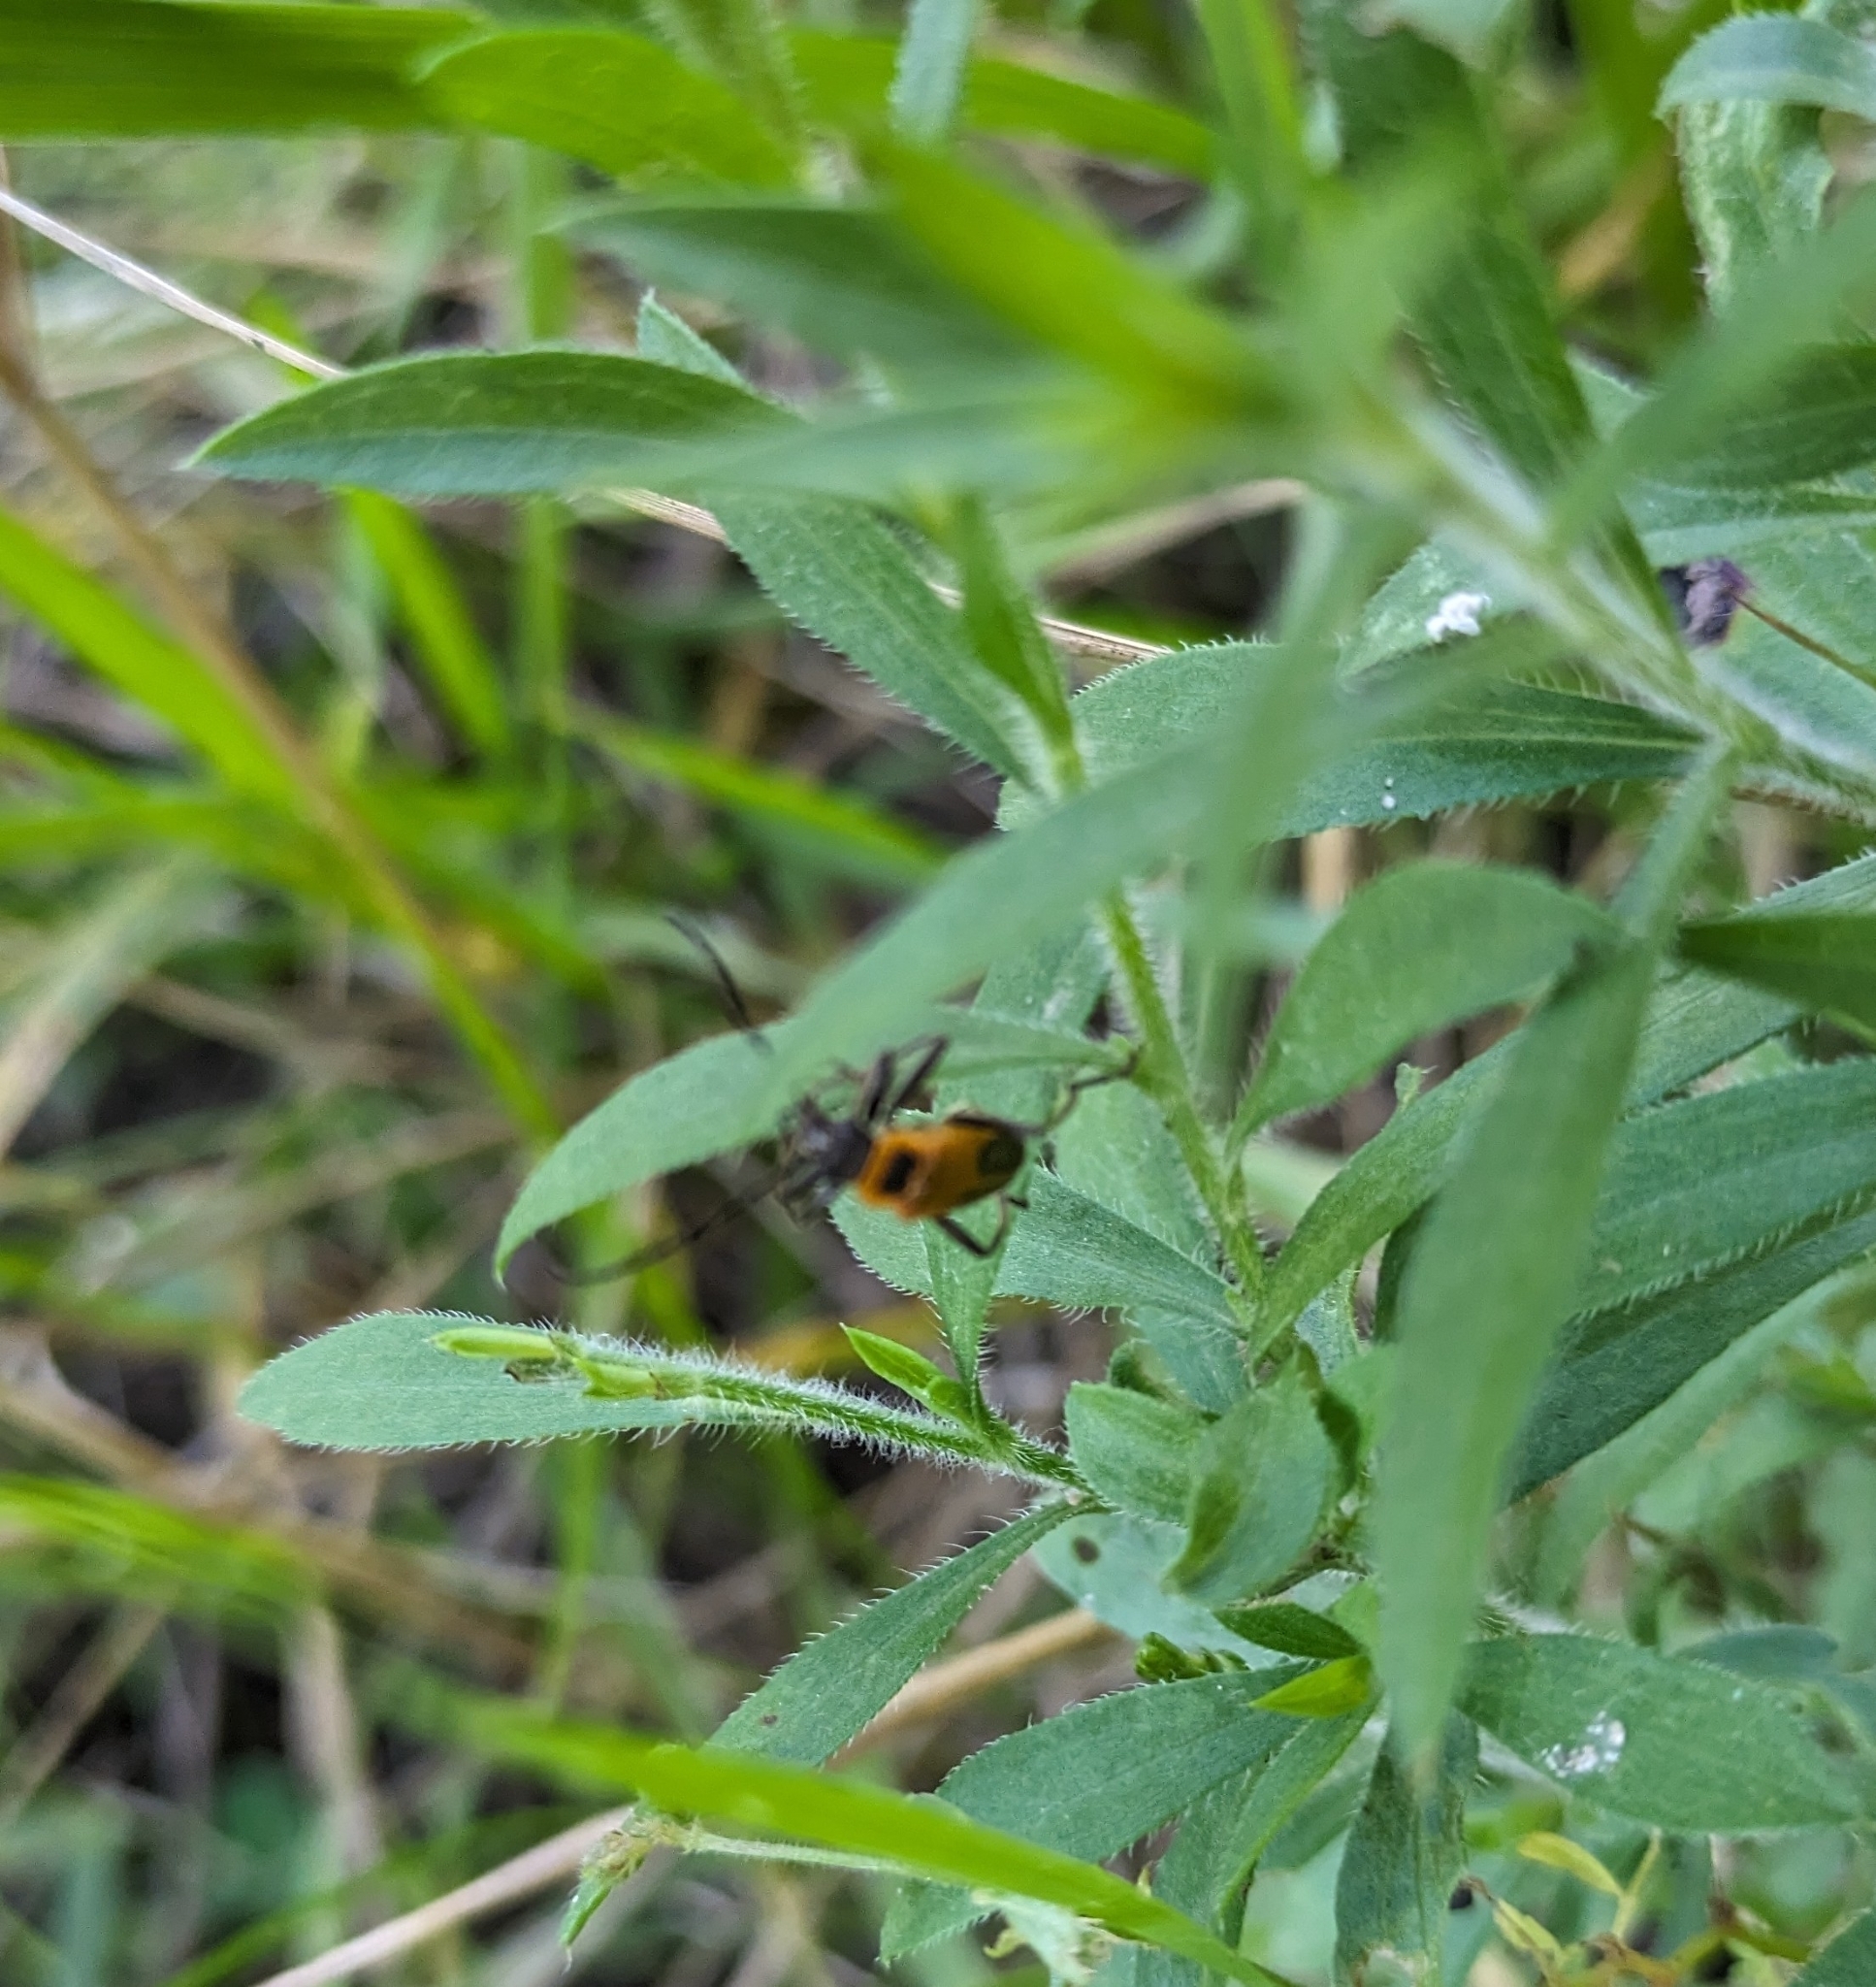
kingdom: Animalia
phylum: Arthropoda
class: Insecta
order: Coleoptera
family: Cantharidae
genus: Chauliognathus
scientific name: Chauliognathus pensylvanicus
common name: Goldenrod soldier beetle
